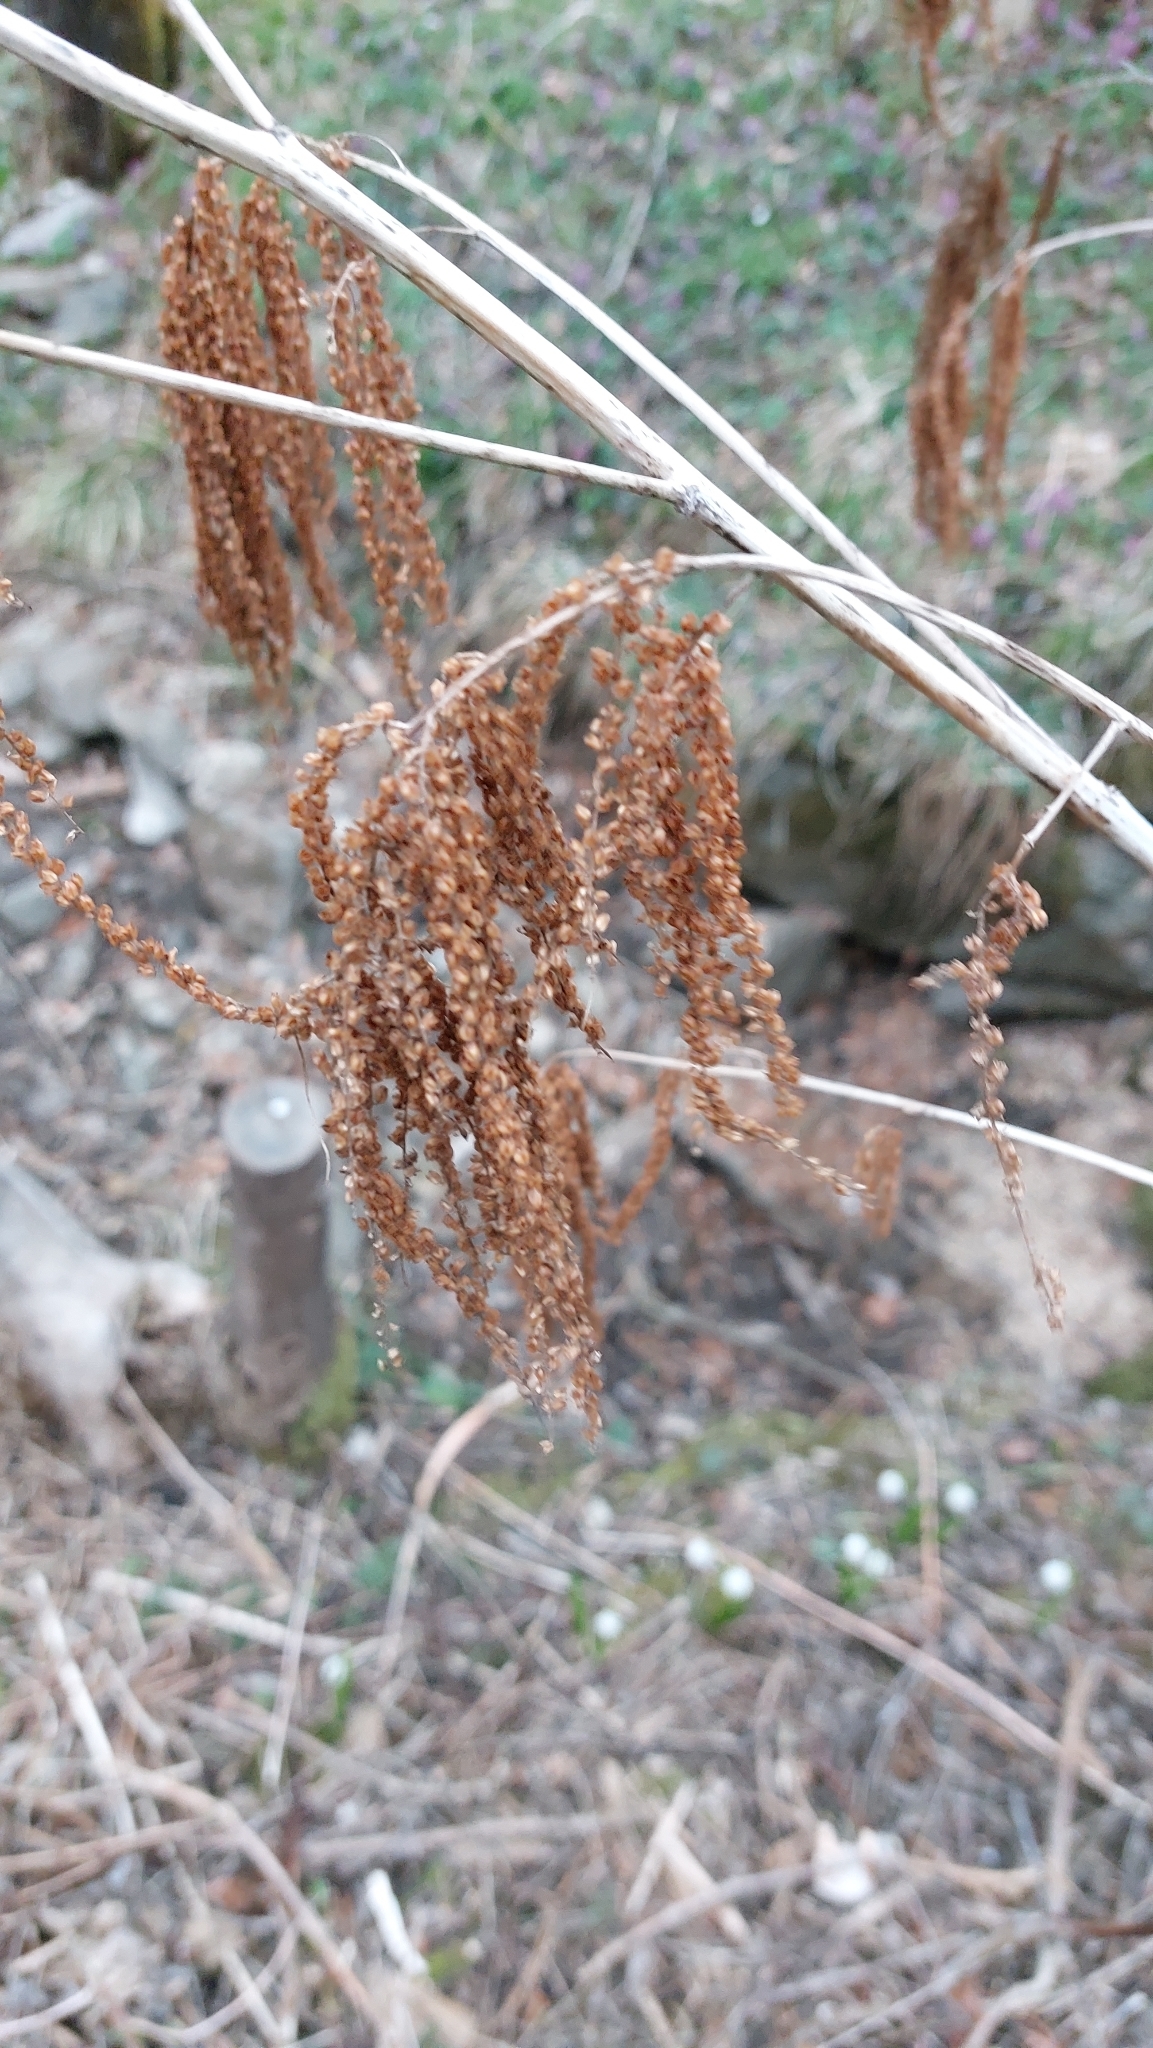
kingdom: Plantae
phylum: Tracheophyta
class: Magnoliopsida
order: Rosales
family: Rosaceae
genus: Aruncus
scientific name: Aruncus dioicus
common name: Buck's-beard
